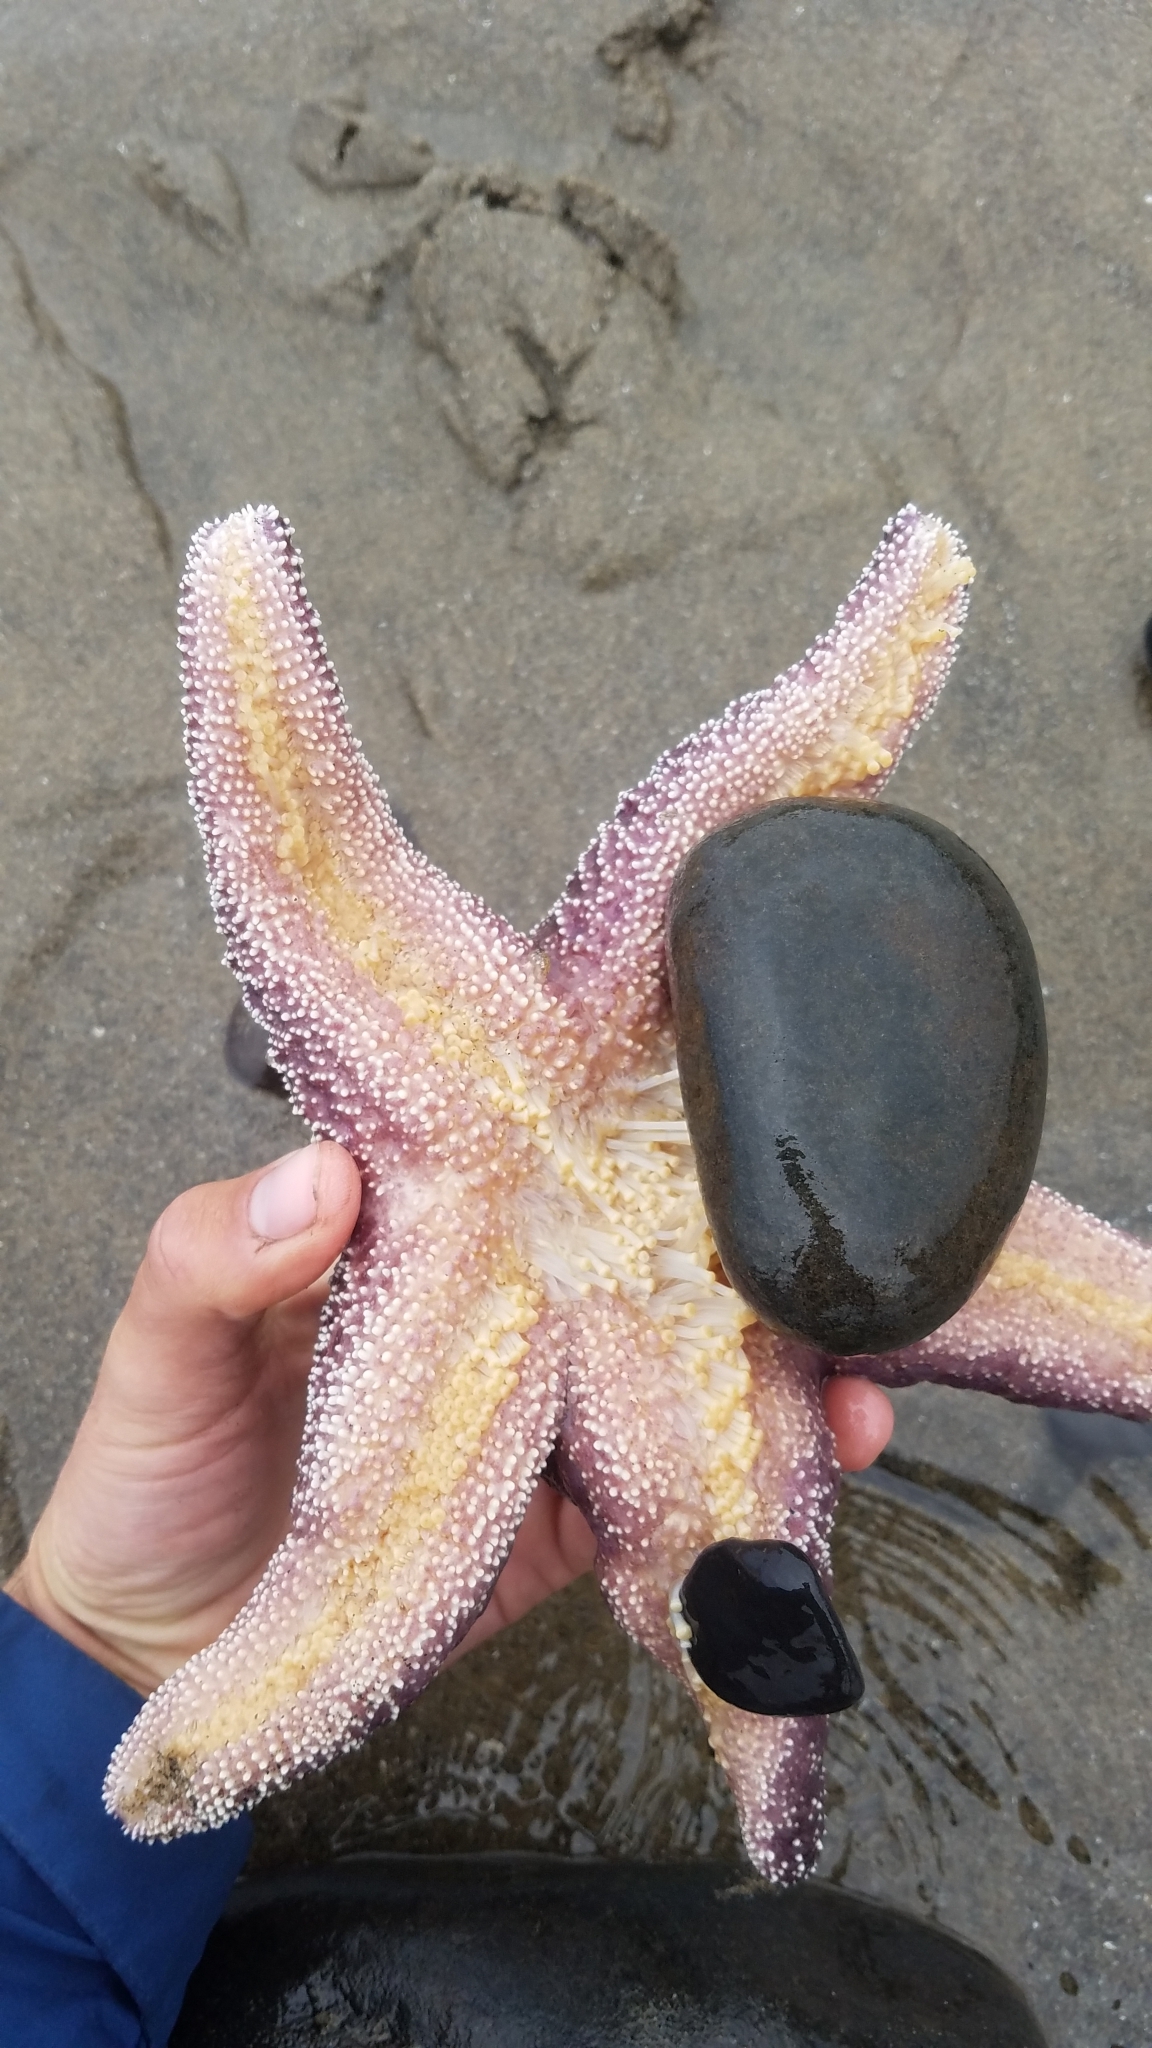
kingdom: Animalia
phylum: Echinodermata
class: Asteroidea
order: Forcipulatida
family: Asteriidae
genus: Pisaster
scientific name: Pisaster ochraceus
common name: Ochre stars
